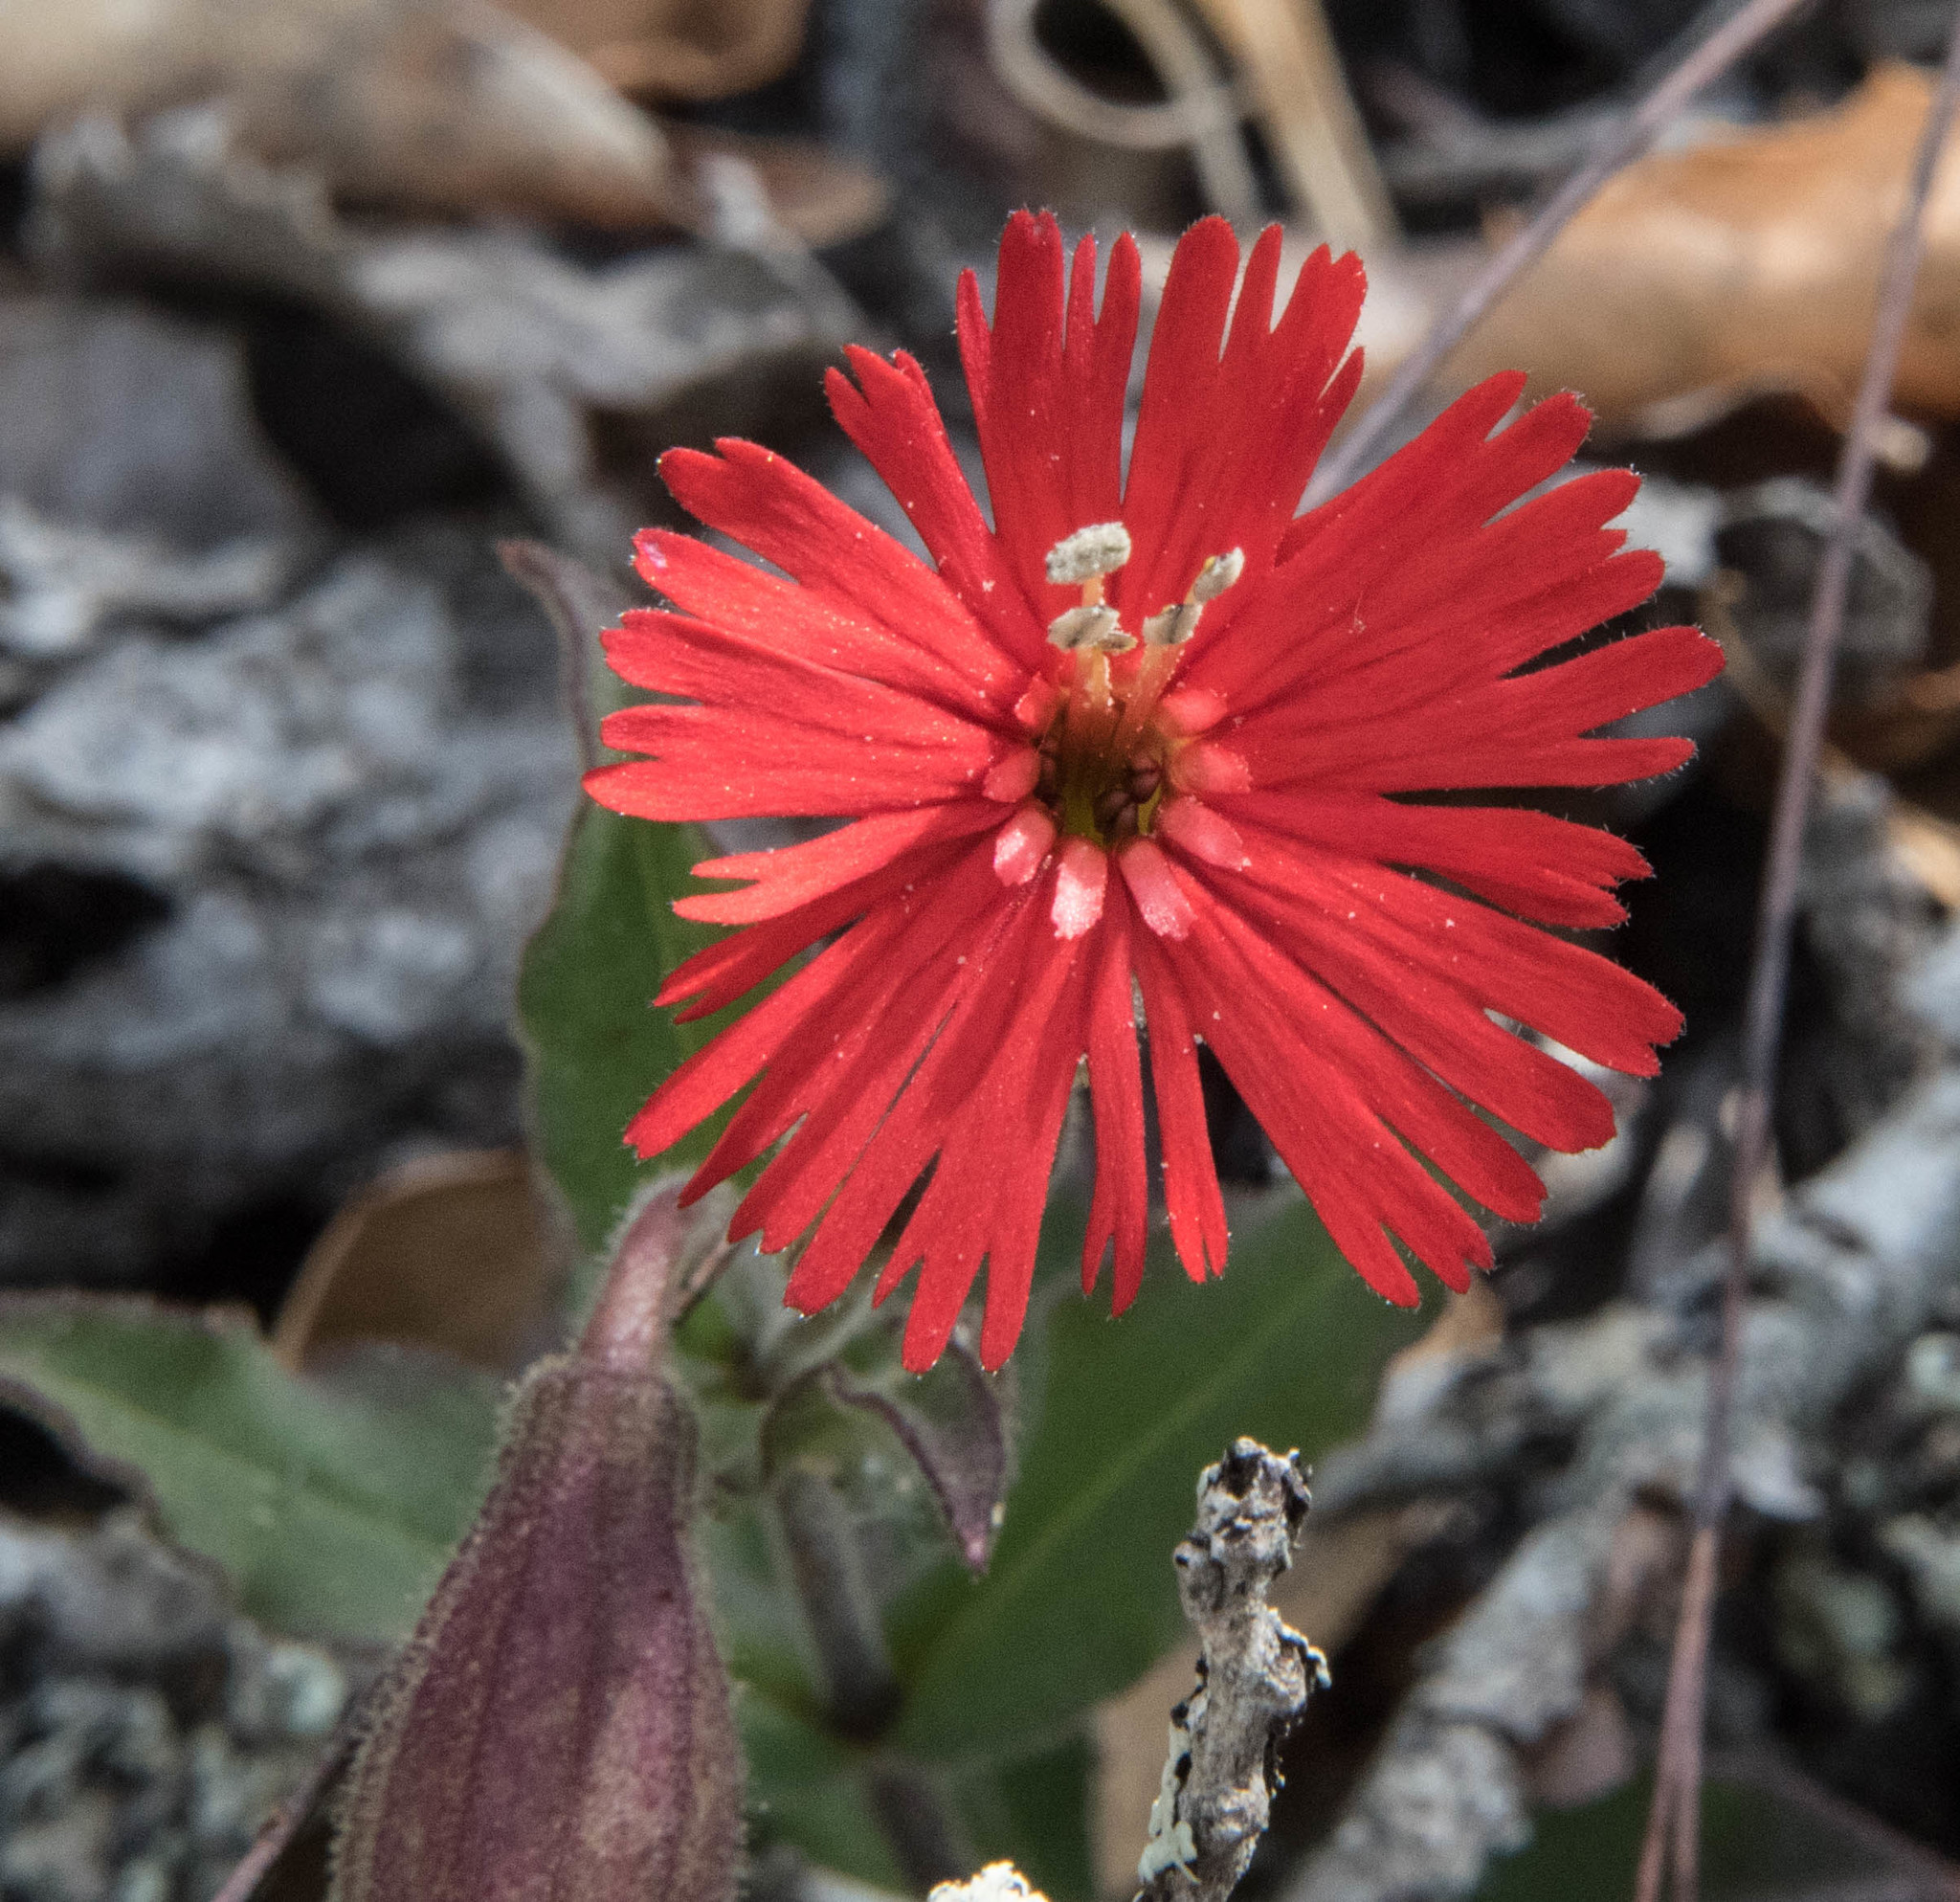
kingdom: Plantae
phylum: Tracheophyta
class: Magnoliopsida
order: Caryophyllales
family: Caryophyllaceae
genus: Silene
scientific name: Silene laciniata
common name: Indian-pink
